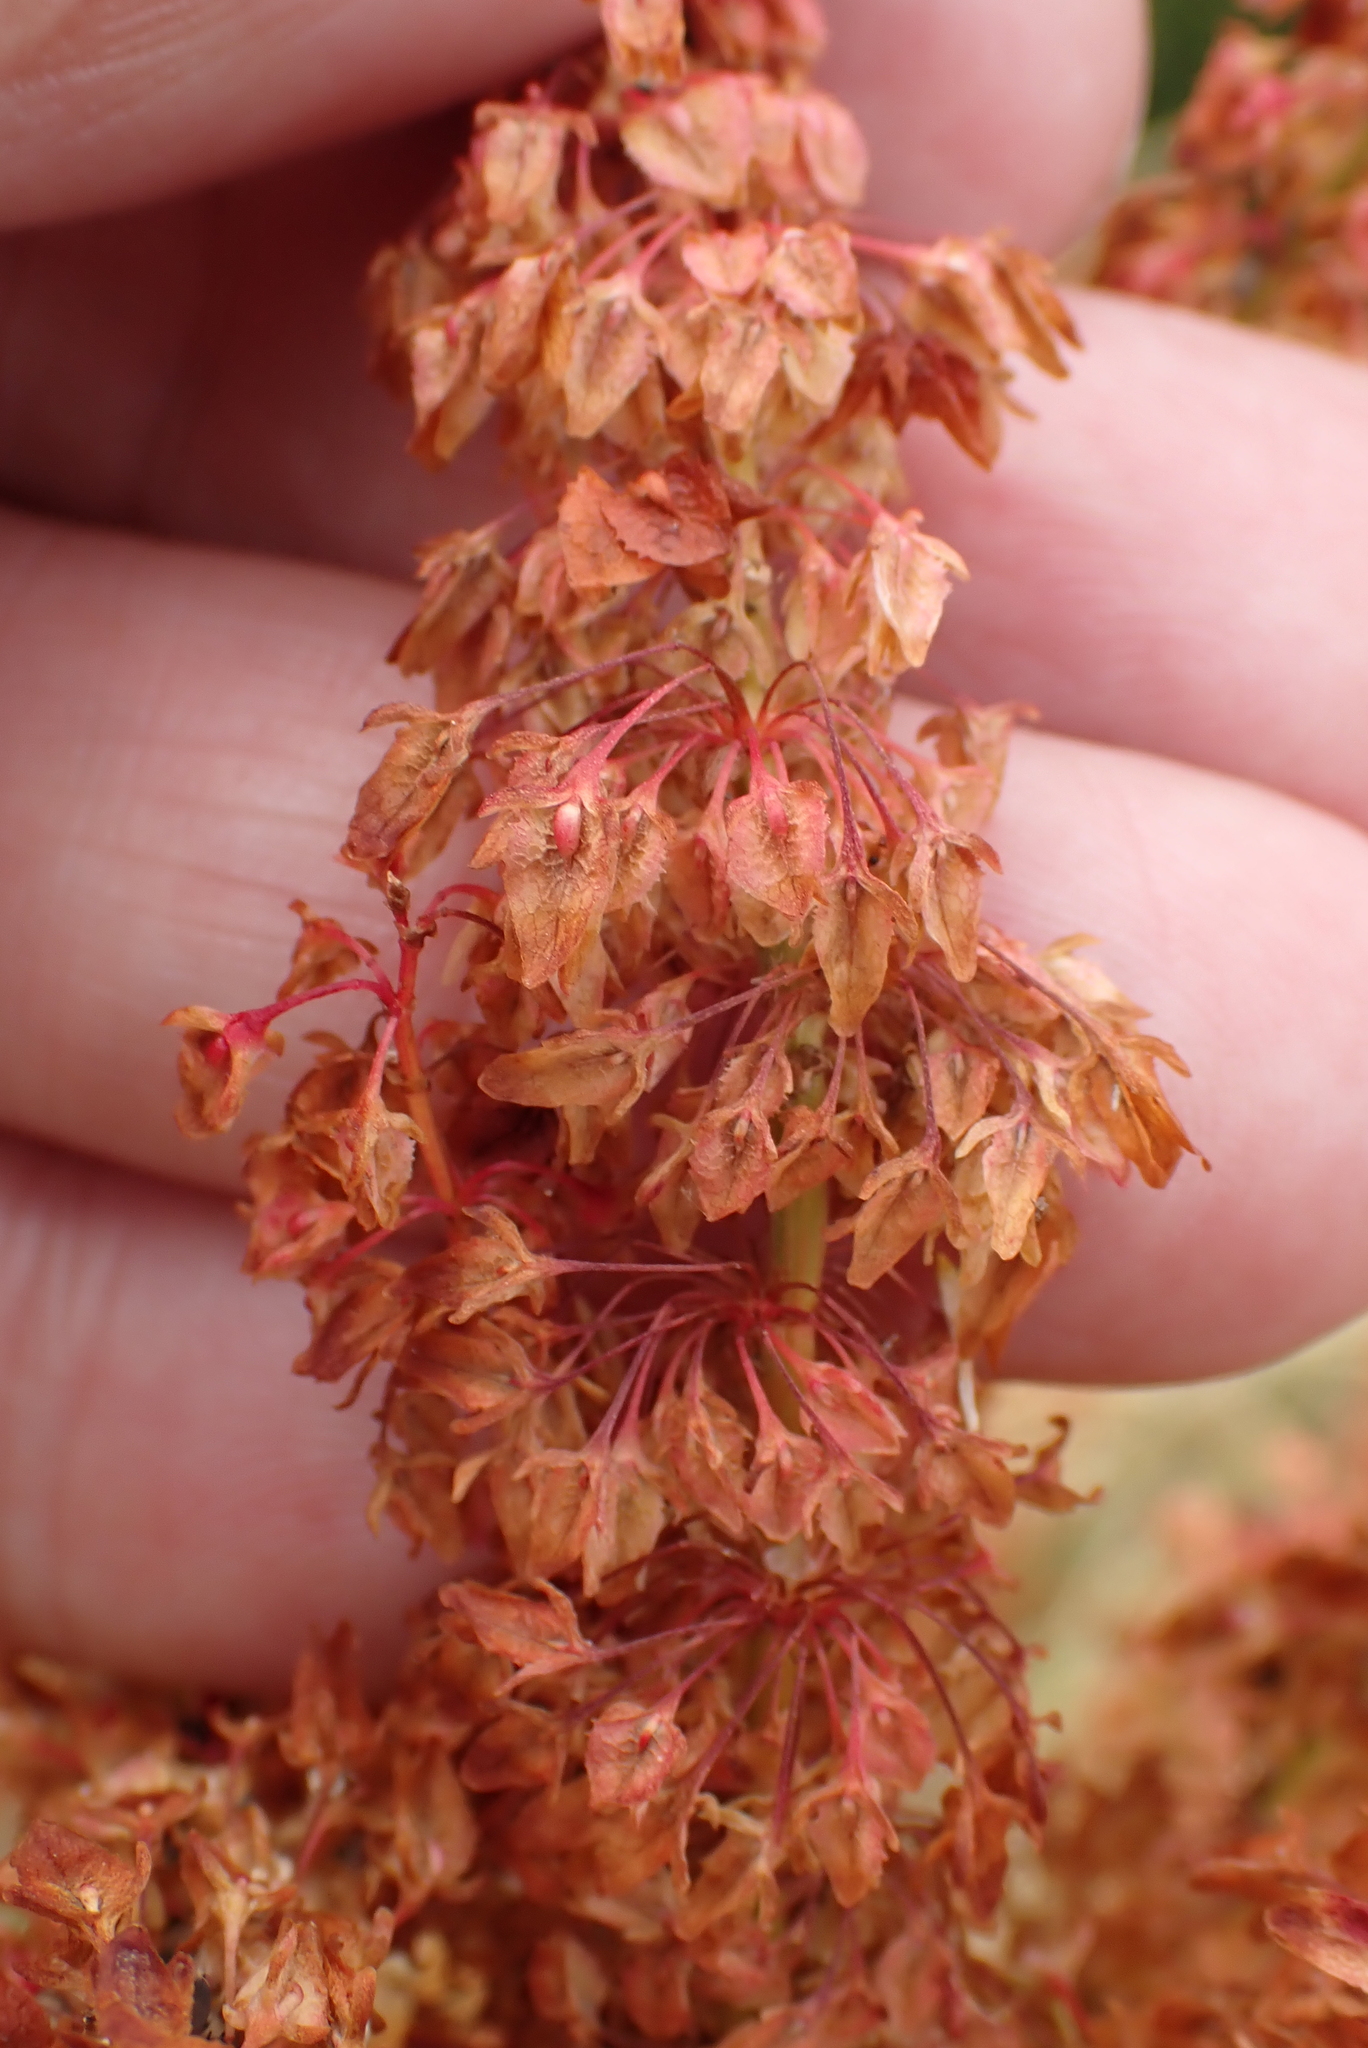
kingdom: Plantae
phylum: Tracheophyta
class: Magnoliopsida
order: Caryophyllales
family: Polygonaceae
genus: Rumex
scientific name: Rumex crispus
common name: Curled dock
